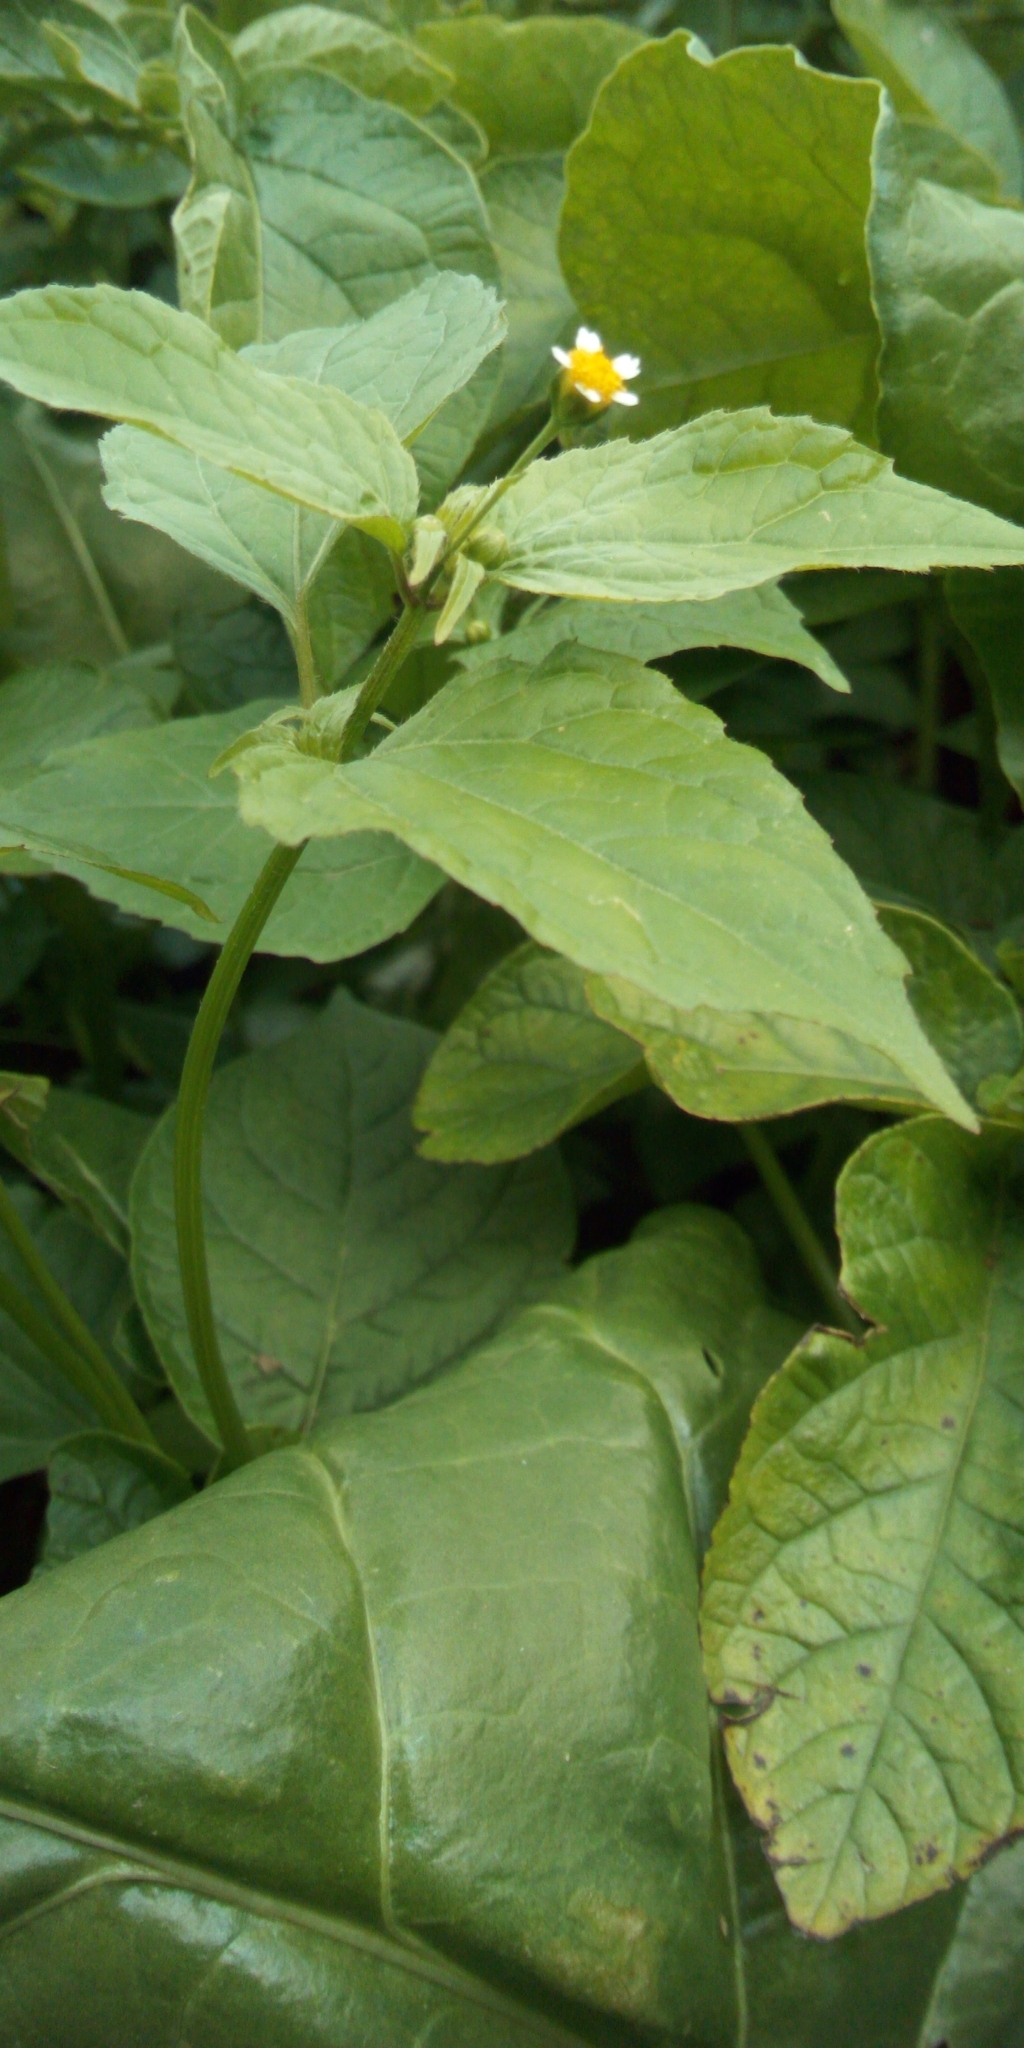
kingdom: Plantae
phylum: Tracheophyta
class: Magnoliopsida
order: Asterales
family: Asteraceae
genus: Galinsoga
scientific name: Galinsoga parviflora
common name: Gallant soldier
